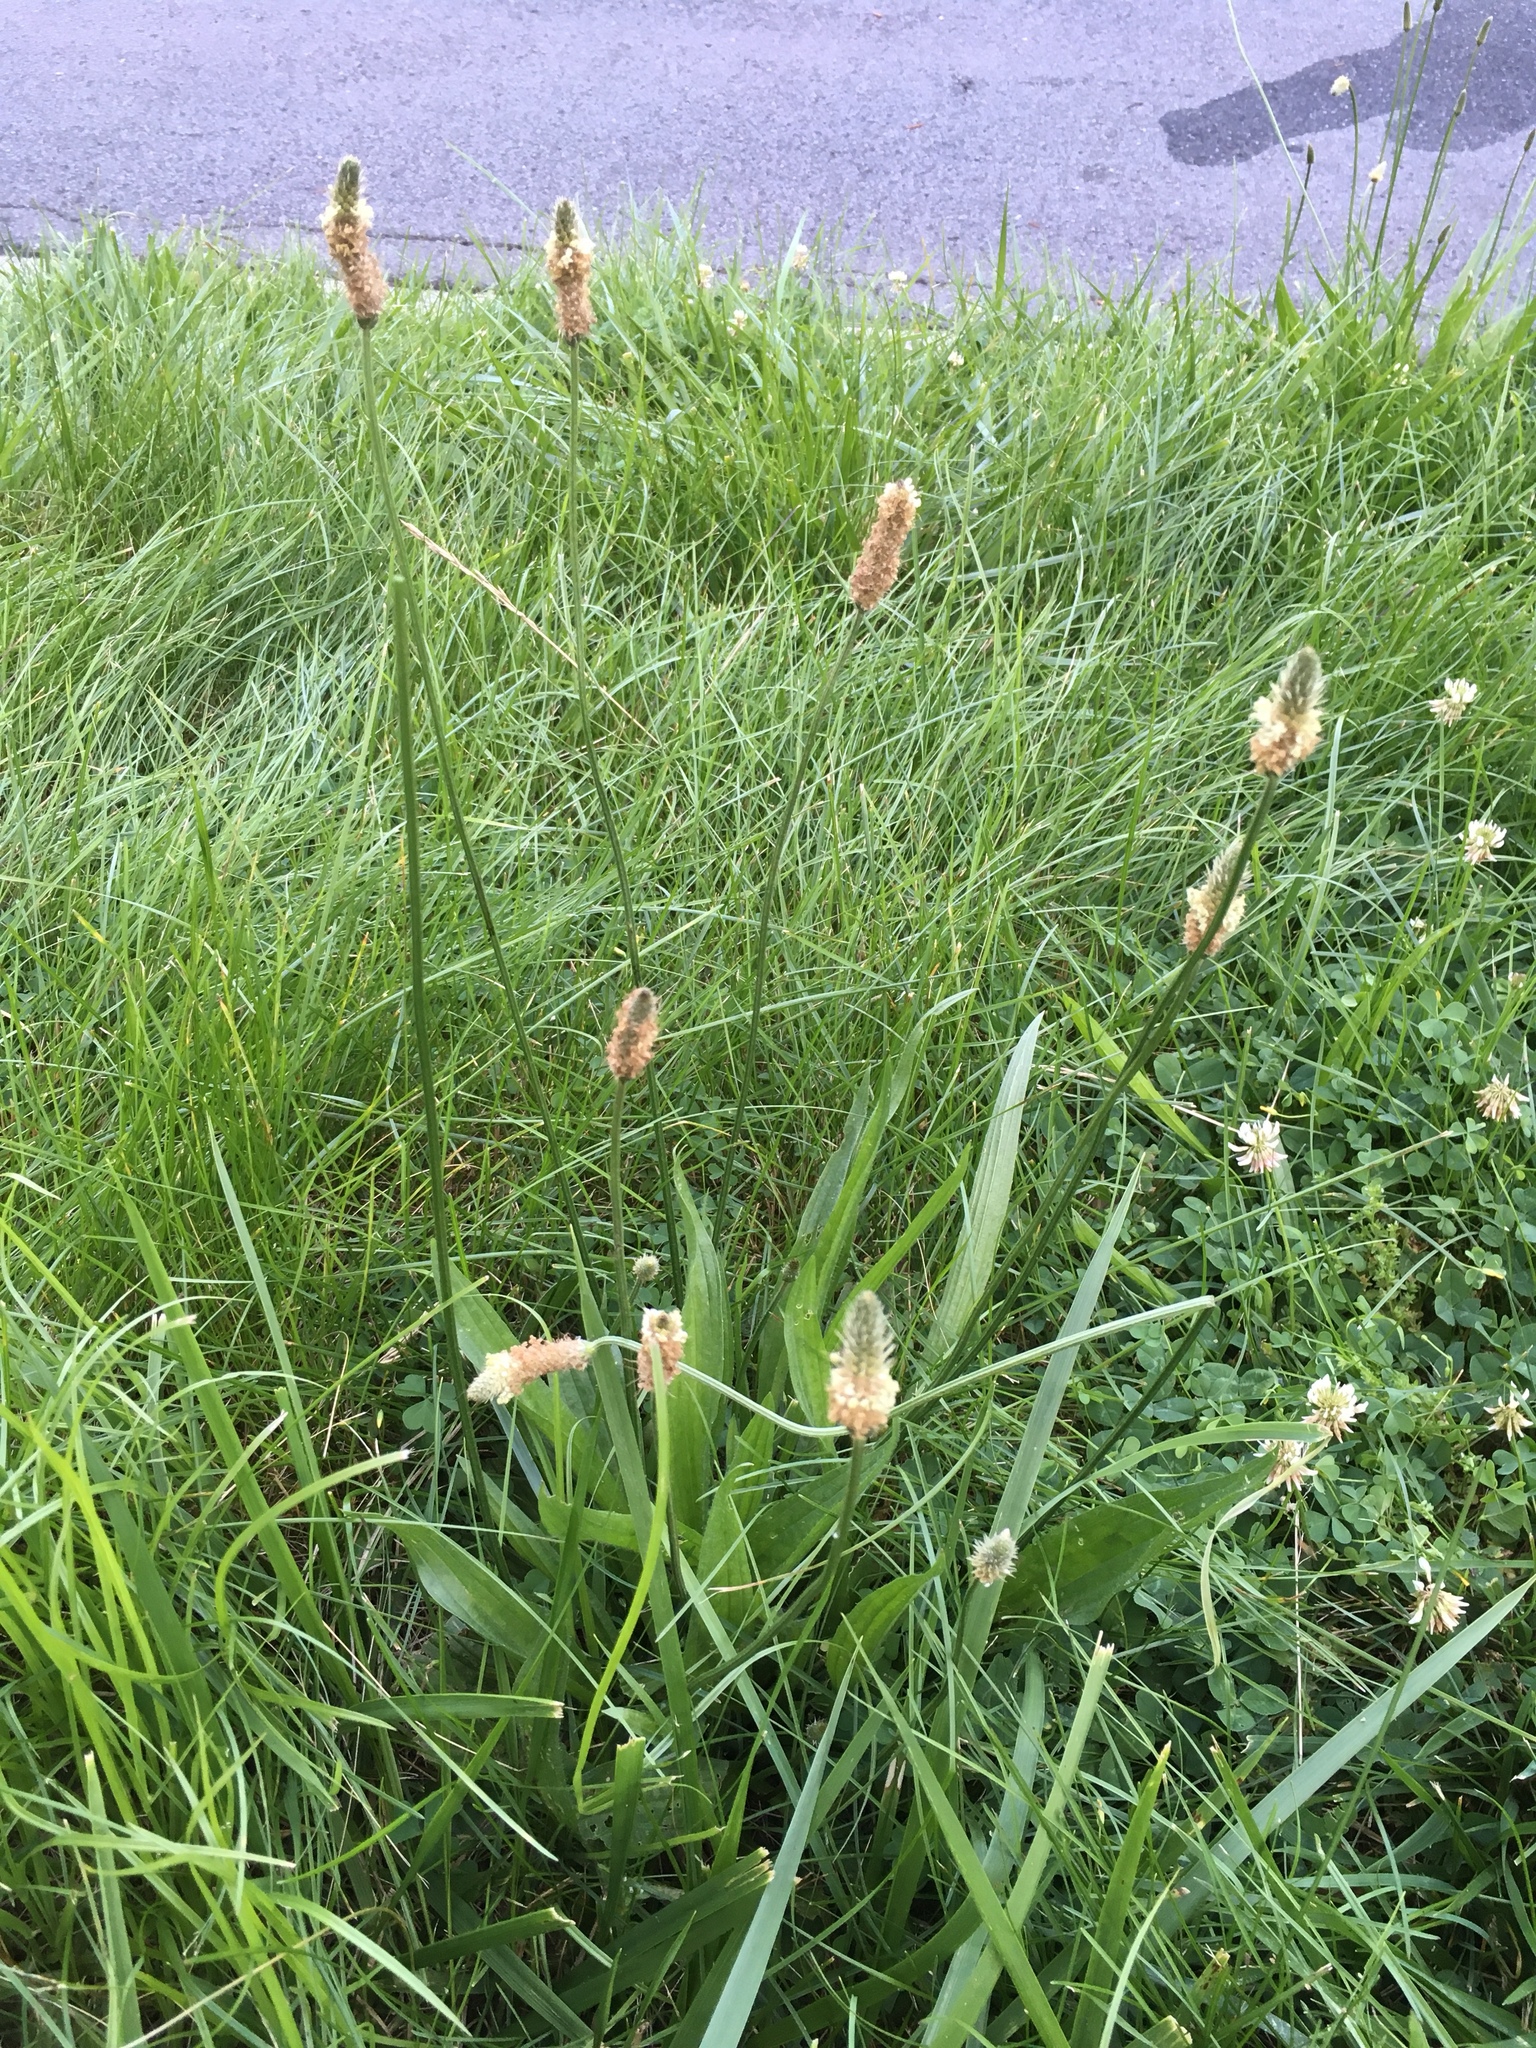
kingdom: Plantae
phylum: Tracheophyta
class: Magnoliopsida
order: Lamiales
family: Plantaginaceae
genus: Plantago
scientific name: Plantago lanceolata
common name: Ribwort plantain
